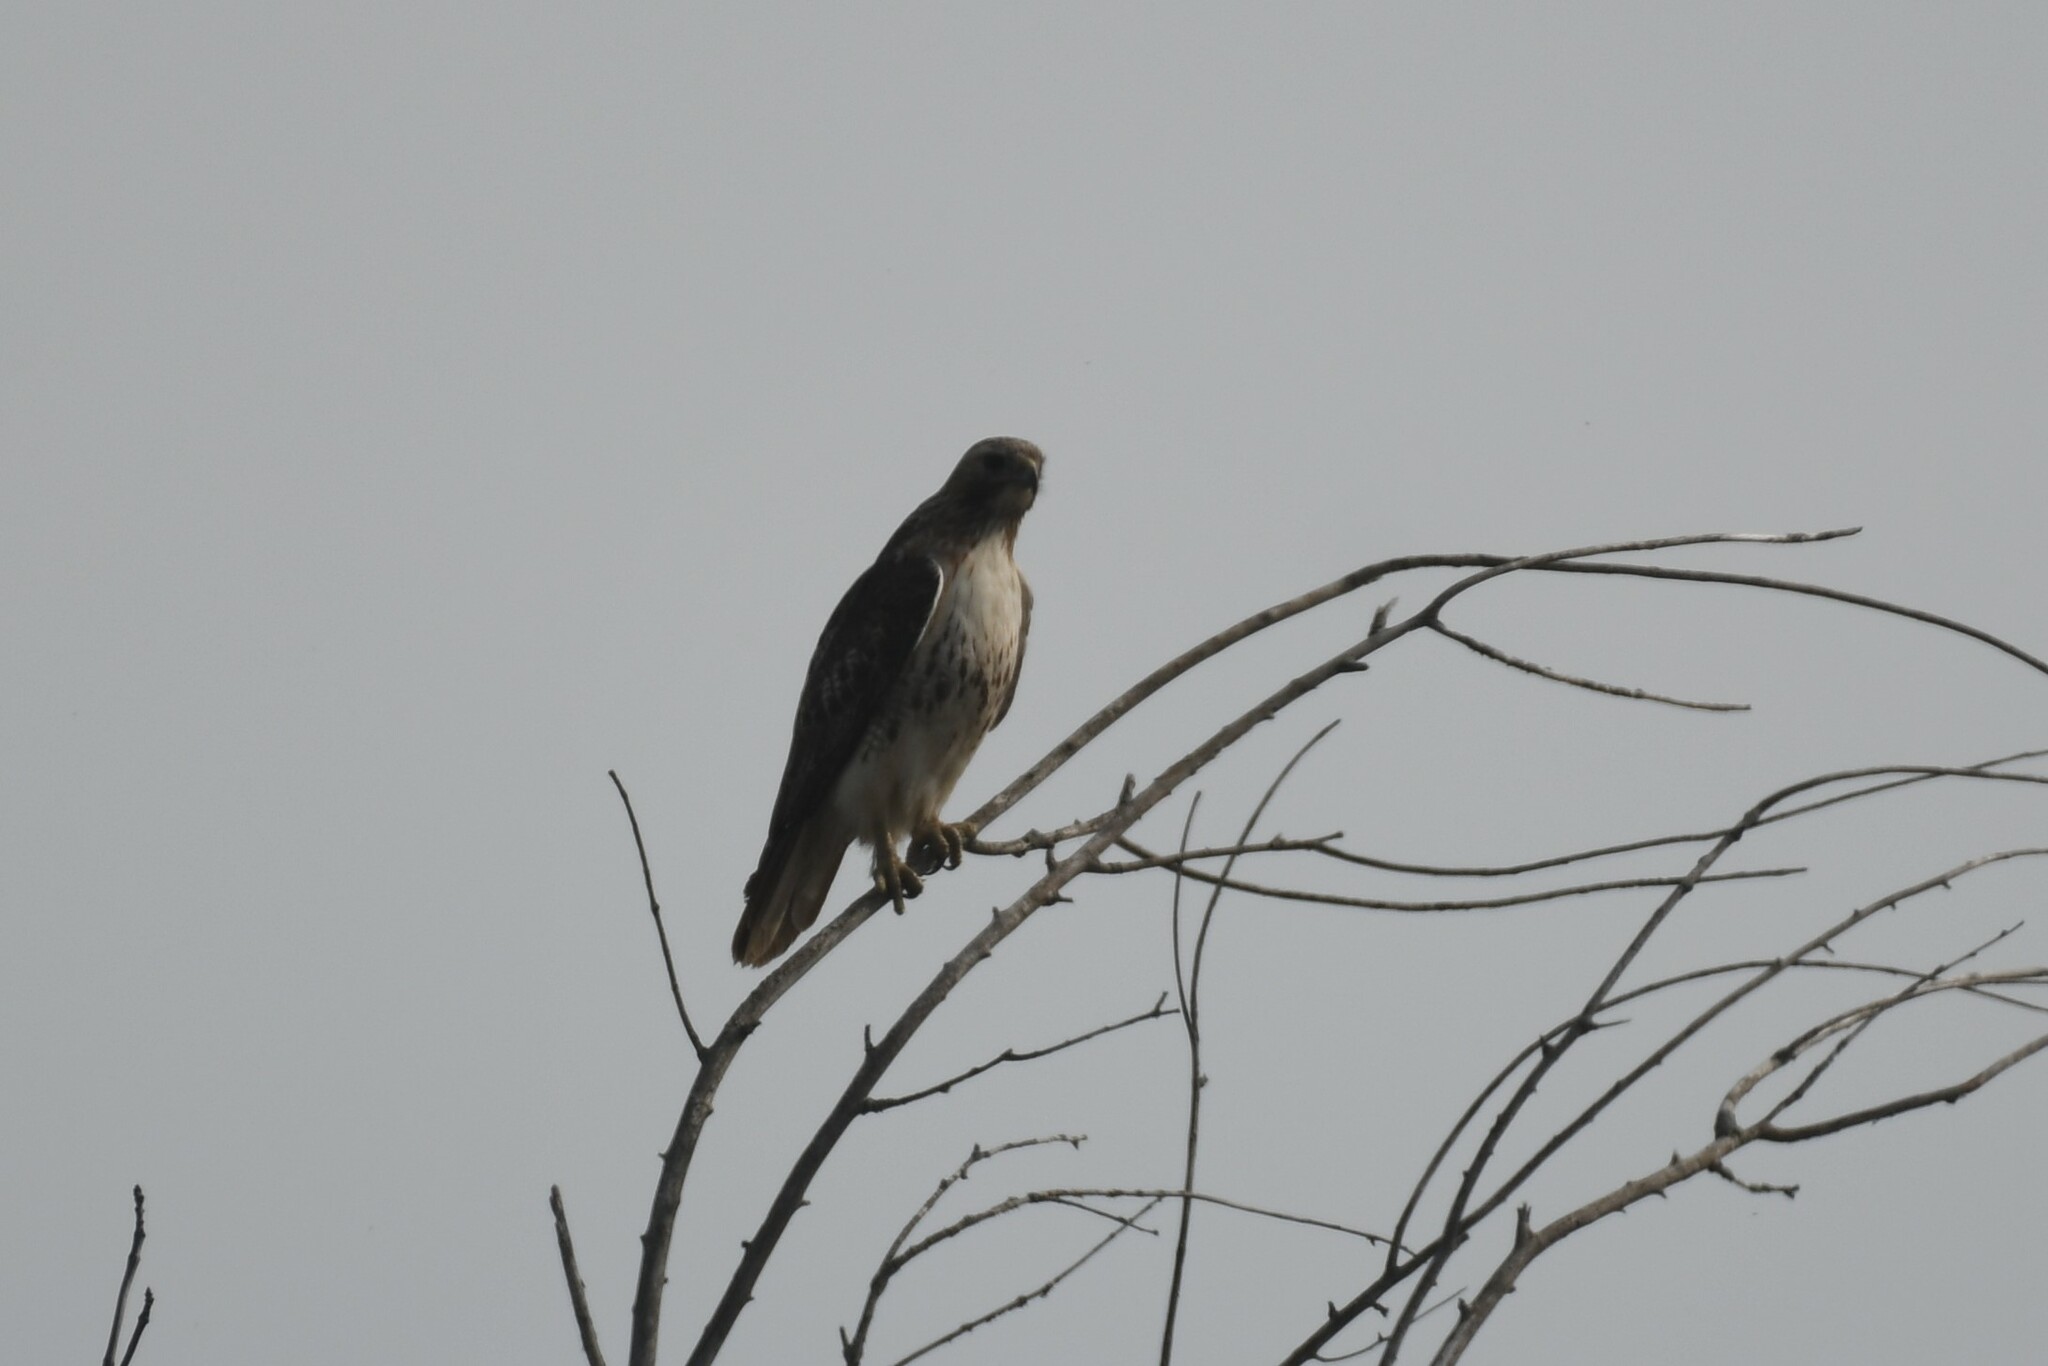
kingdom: Animalia
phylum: Chordata
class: Aves
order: Accipitriformes
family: Accipitridae
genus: Buteo
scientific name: Buteo jamaicensis
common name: Red-tailed hawk
